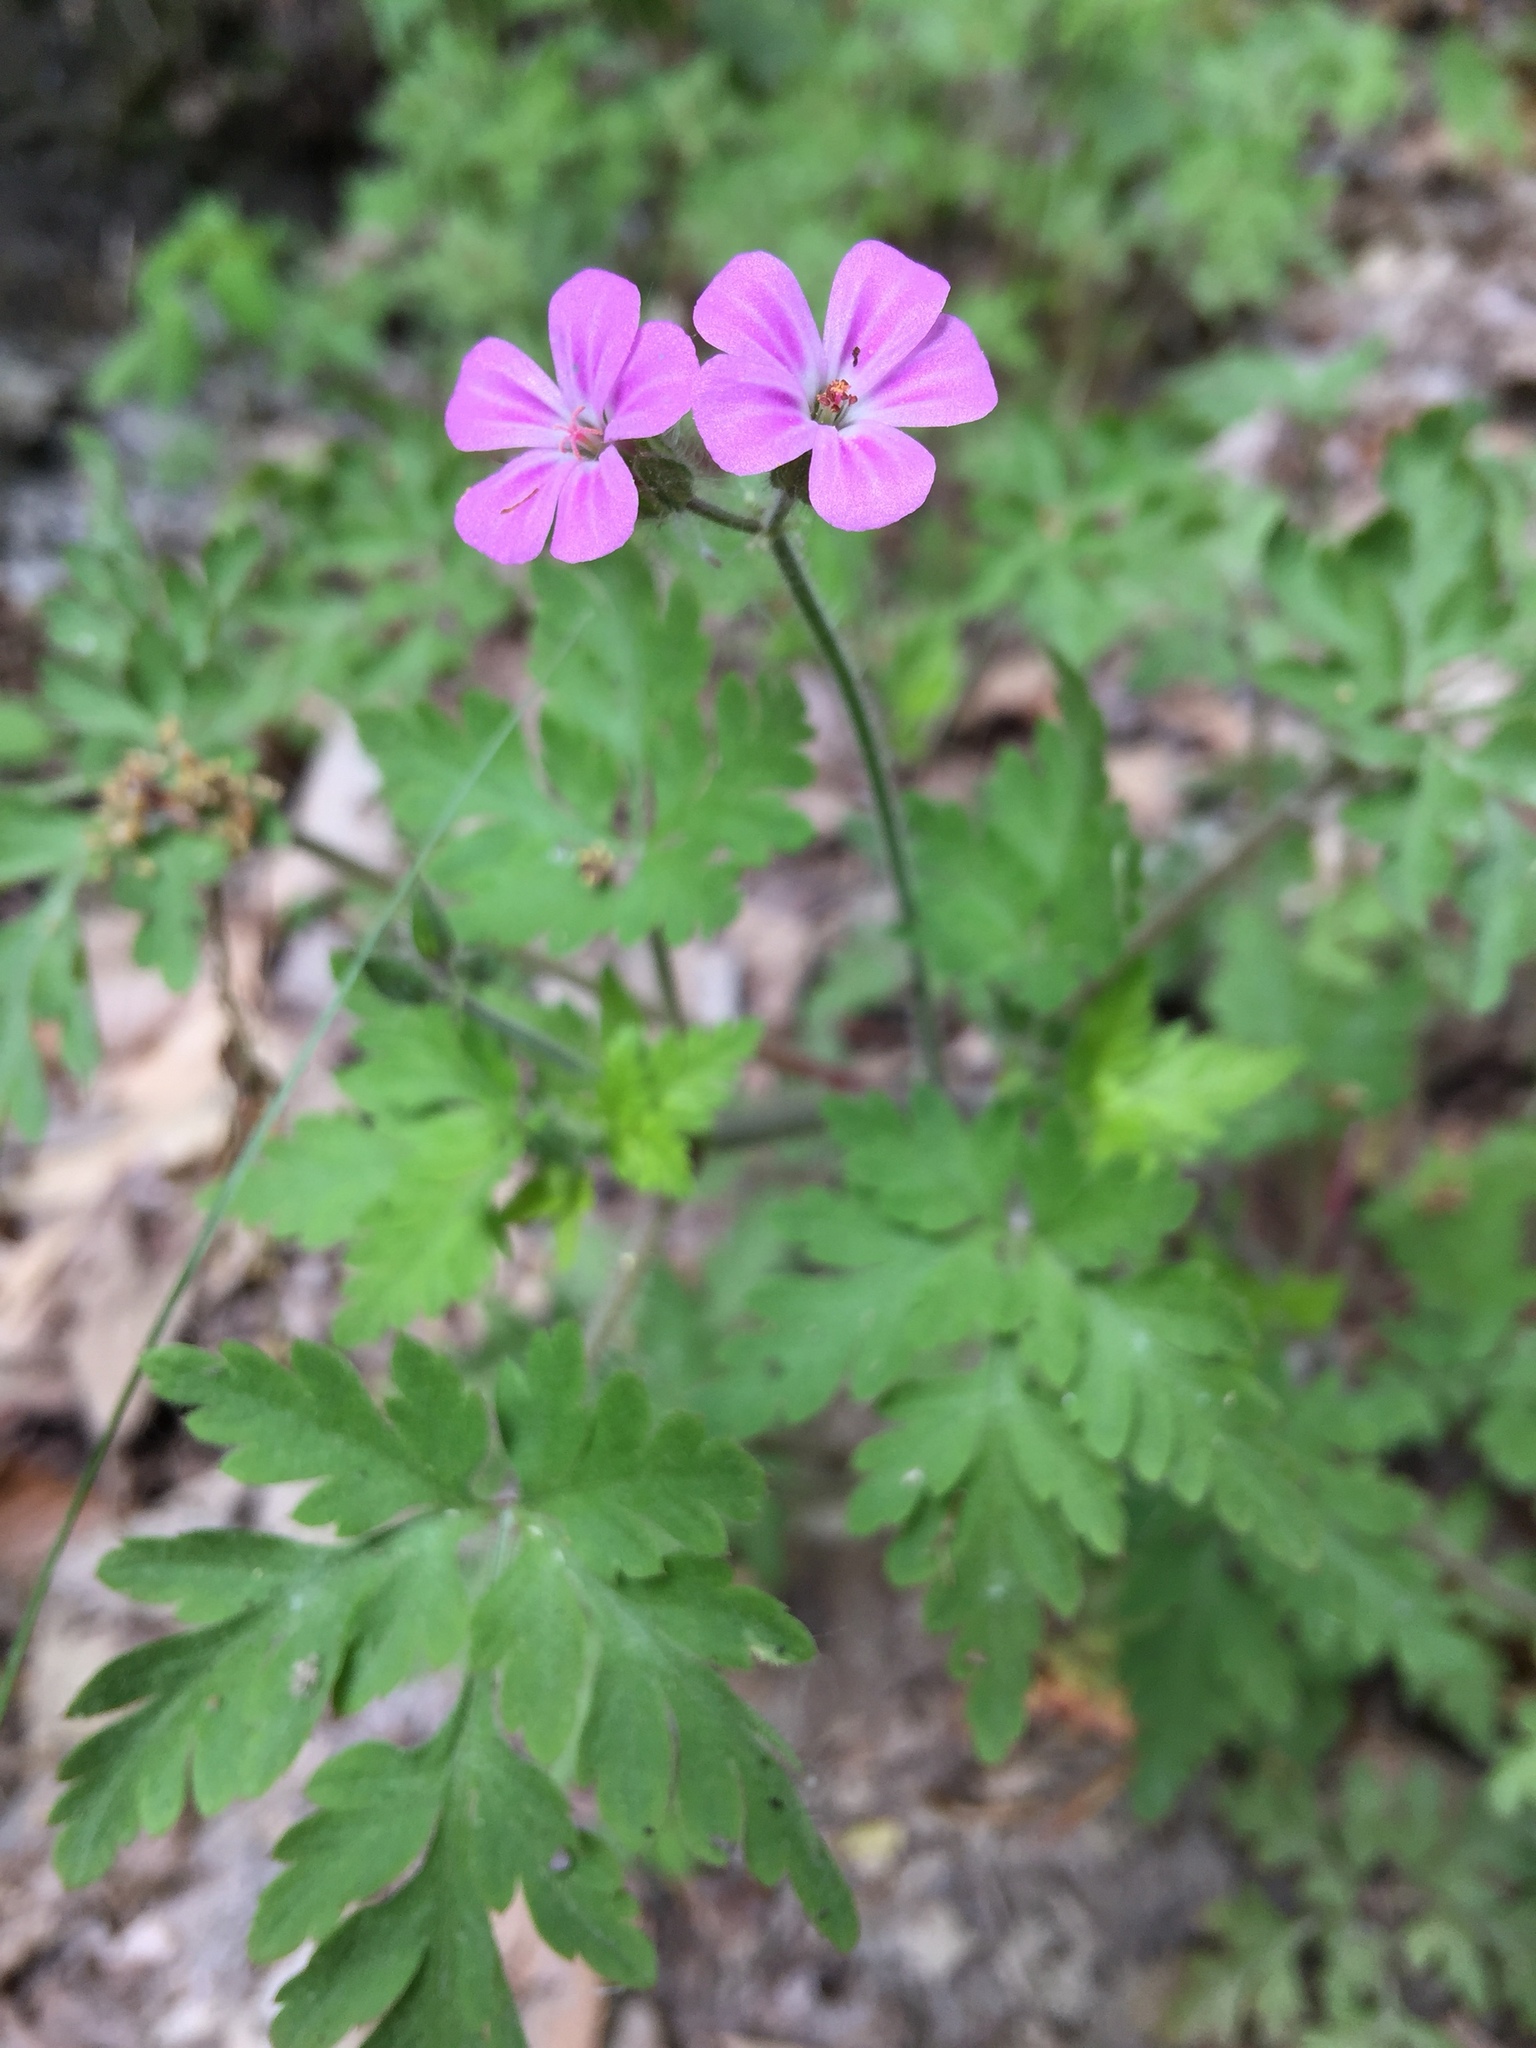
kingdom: Plantae
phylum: Tracheophyta
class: Magnoliopsida
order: Geraniales
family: Geraniaceae
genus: Geranium
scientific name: Geranium robertianum
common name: Herb-robert
